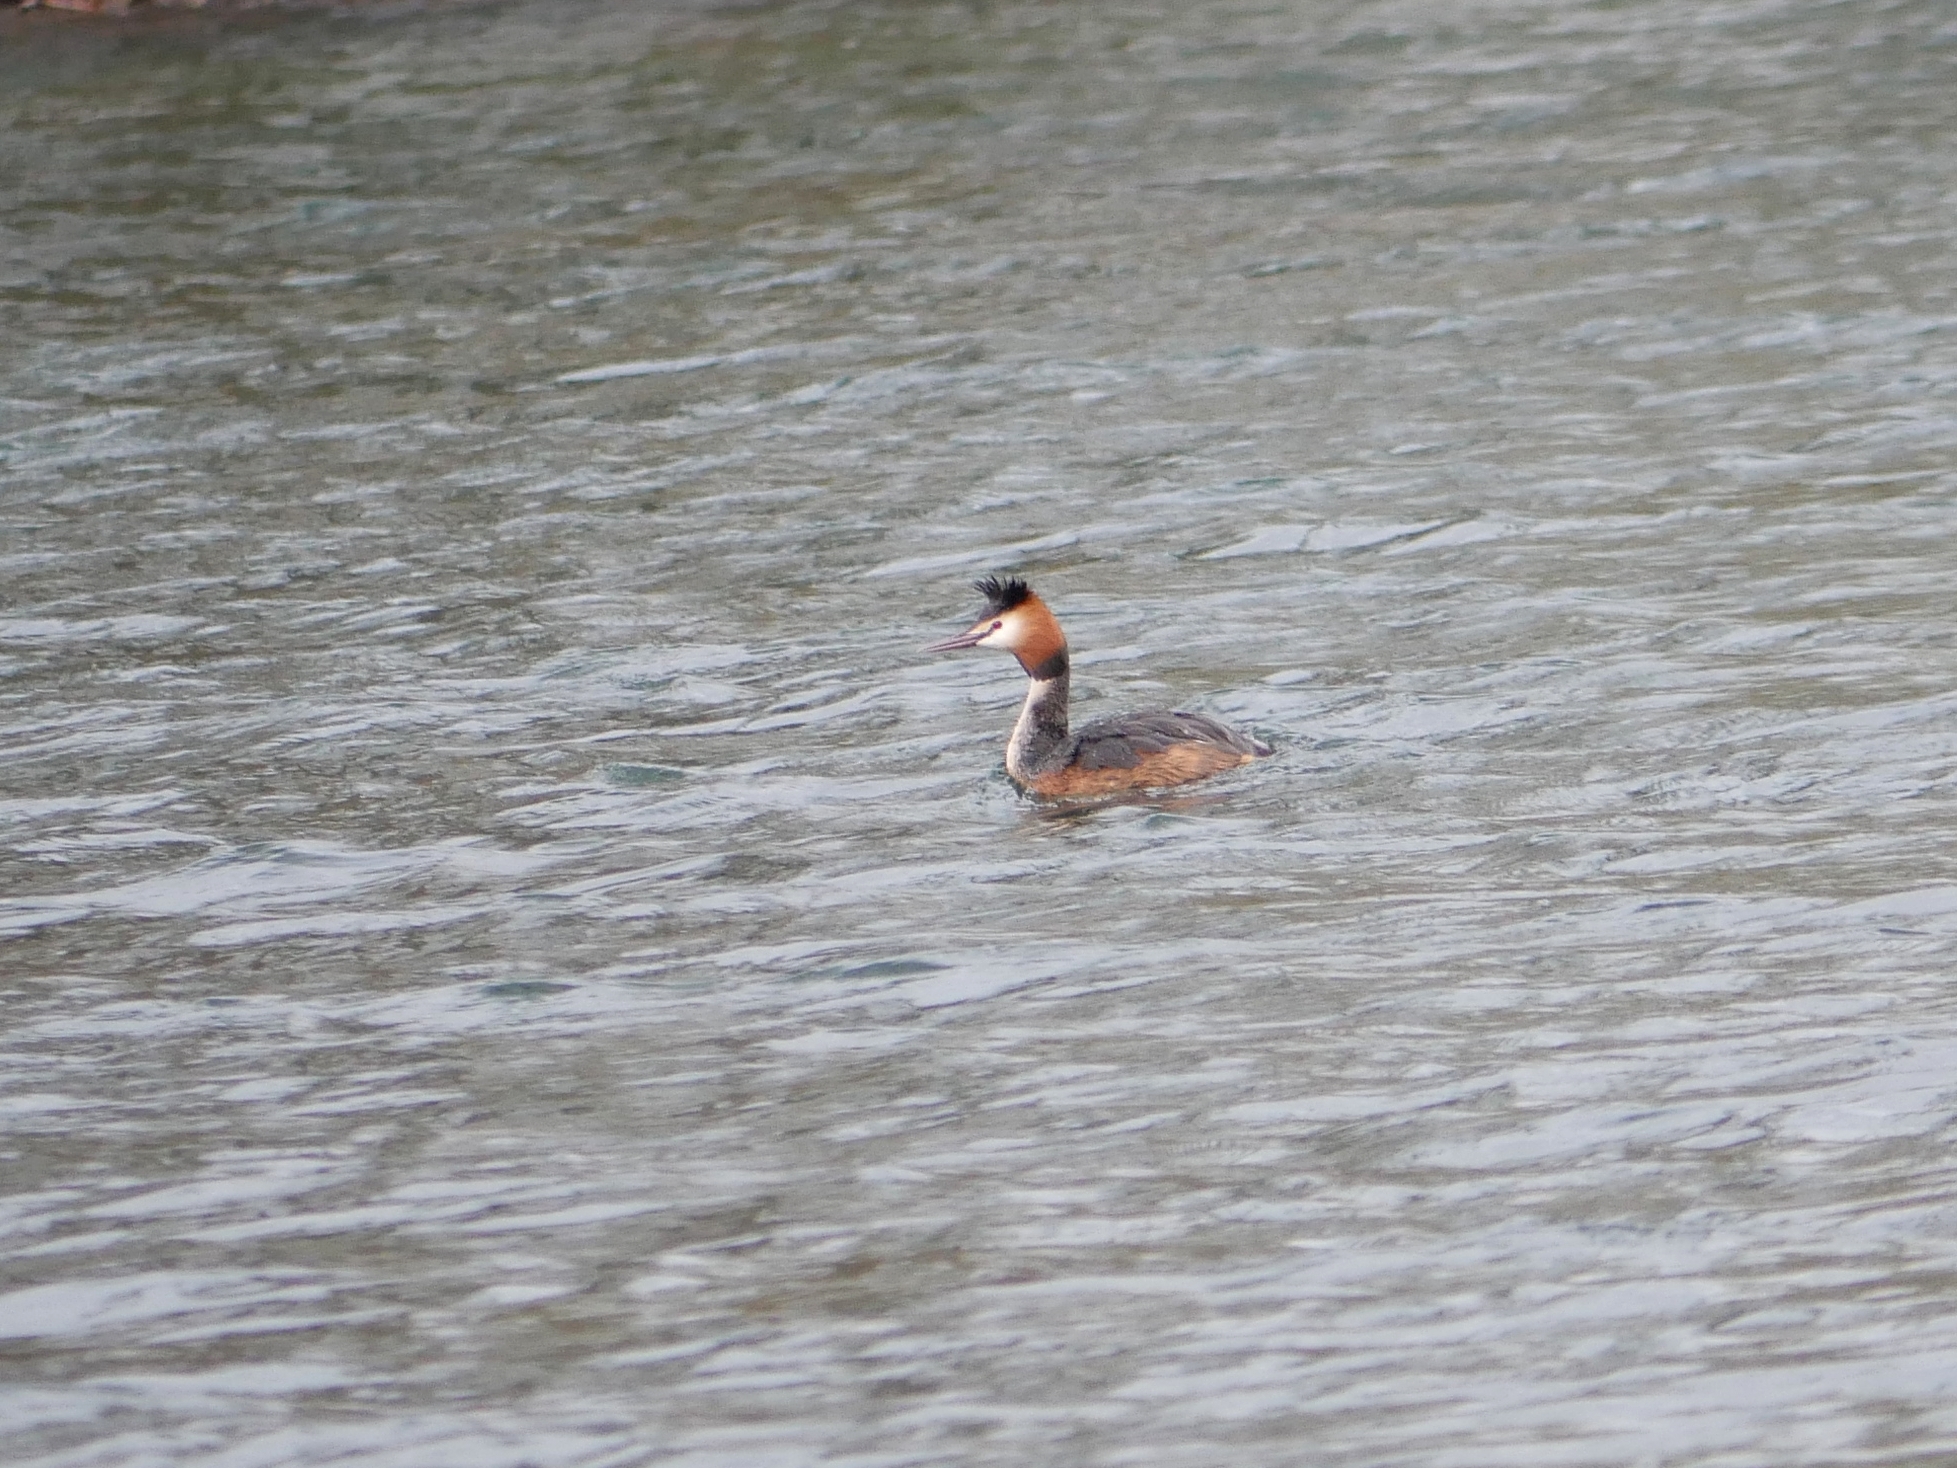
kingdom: Animalia
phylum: Chordata
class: Aves
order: Podicipediformes
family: Podicipedidae
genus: Podiceps
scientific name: Podiceps cristatus
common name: Great crested grebe
